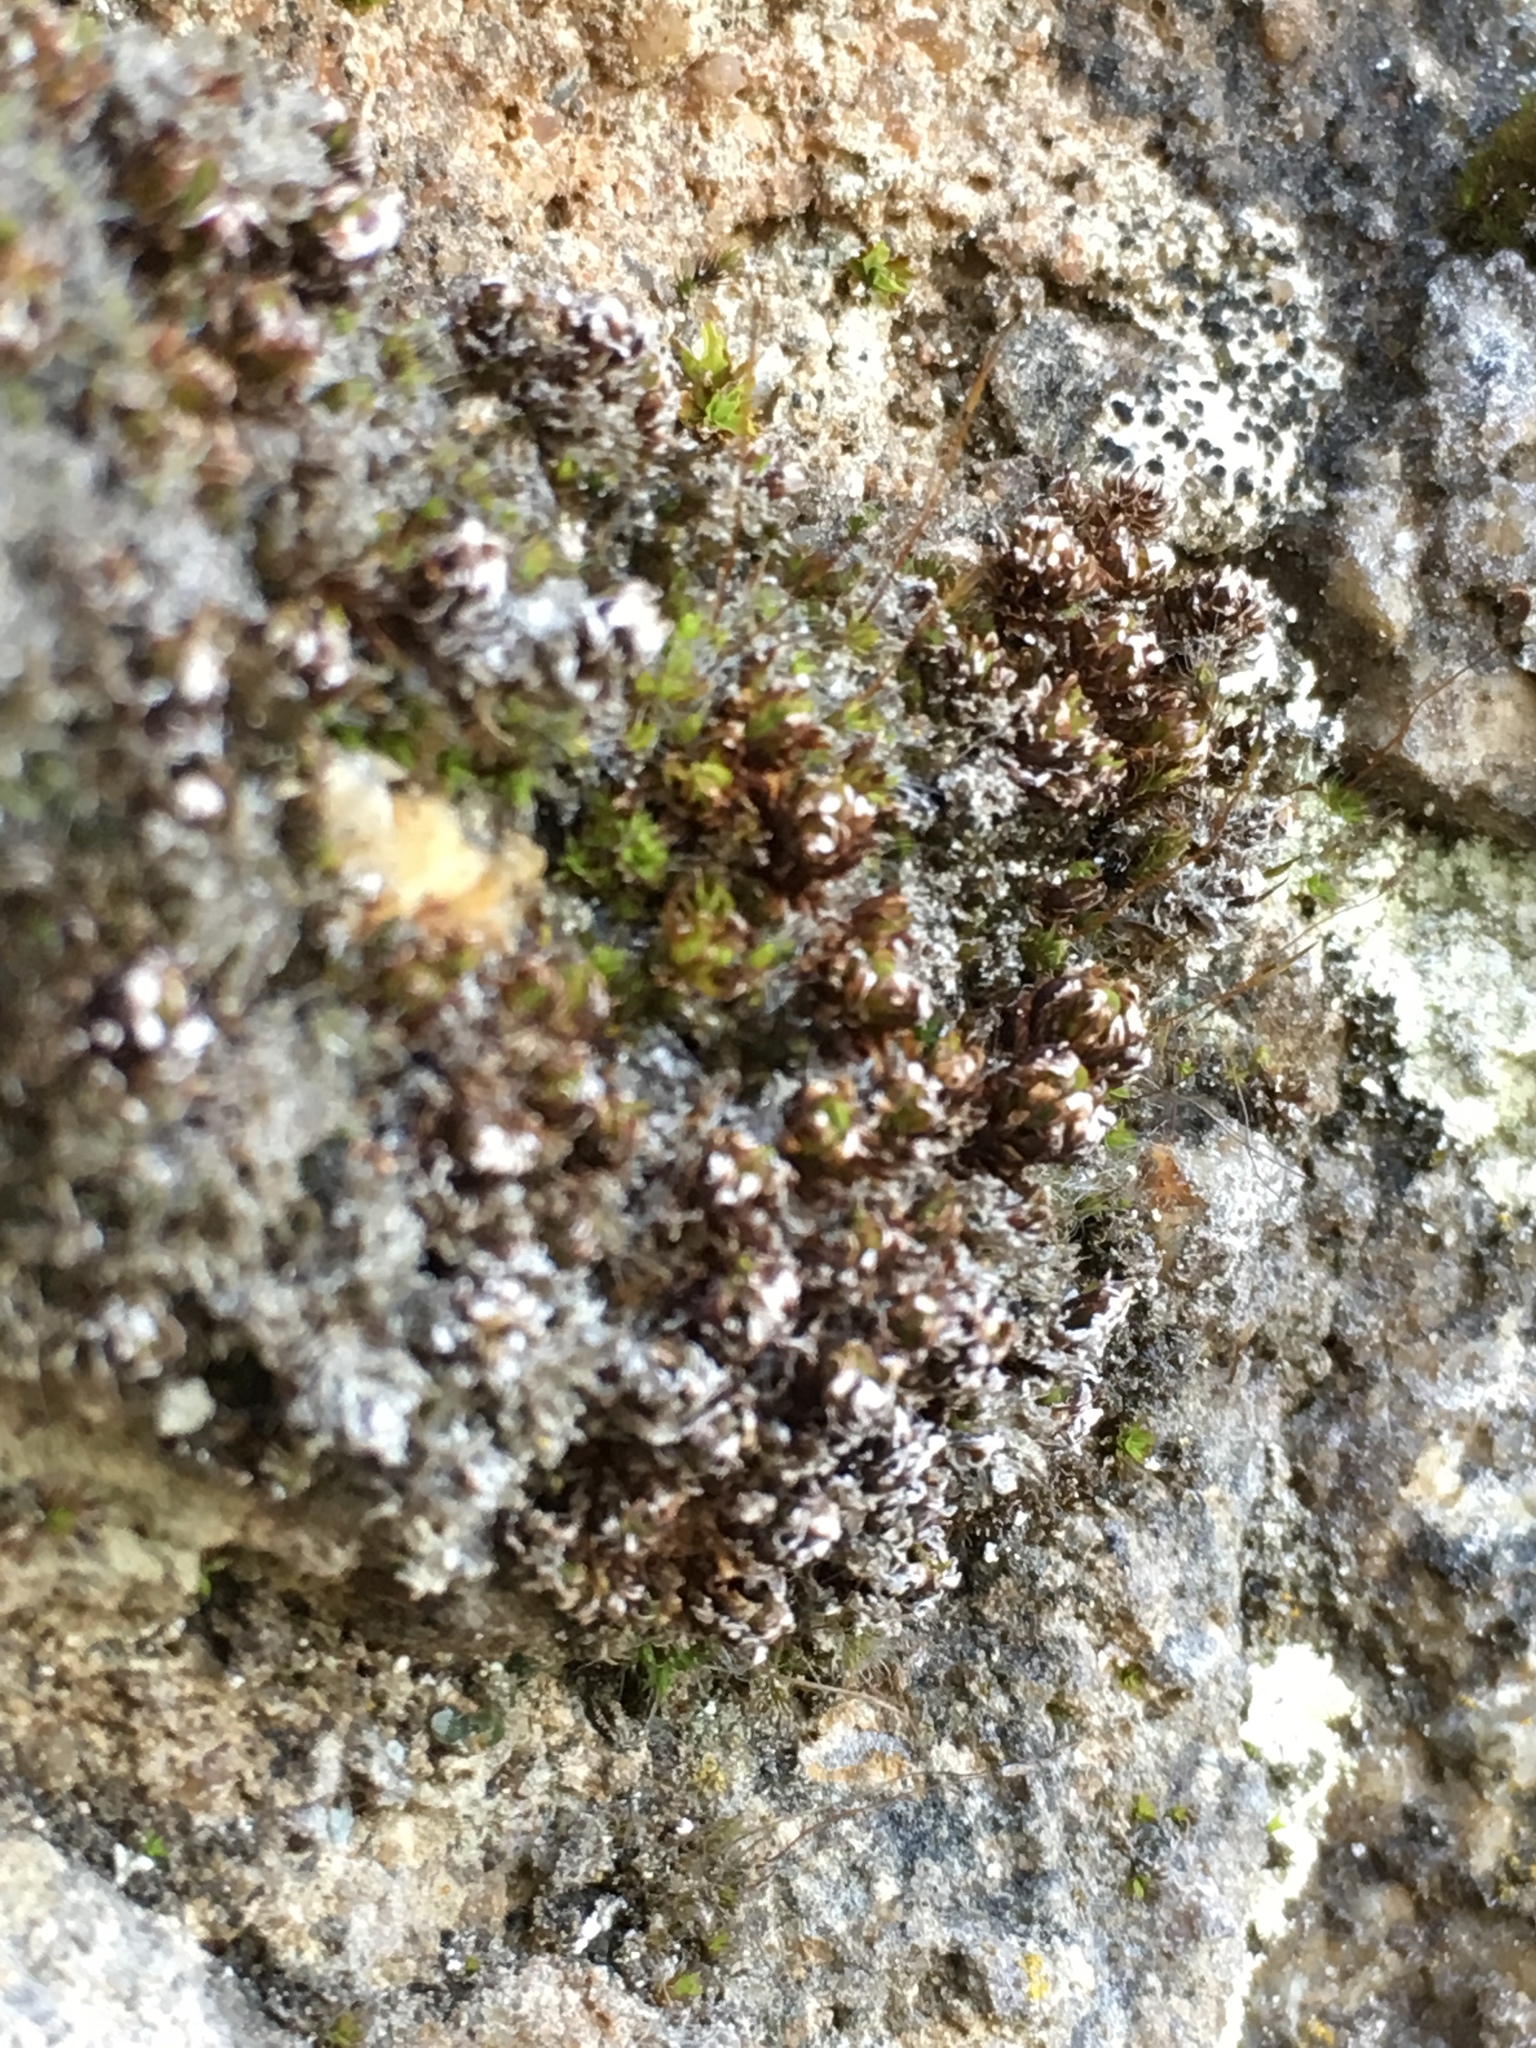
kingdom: Plantae
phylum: Bryophyta
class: Bryopsida
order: Pottiales
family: Pottiaceae
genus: Tortula
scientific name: Tortula muralis
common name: Wall screw-moss
